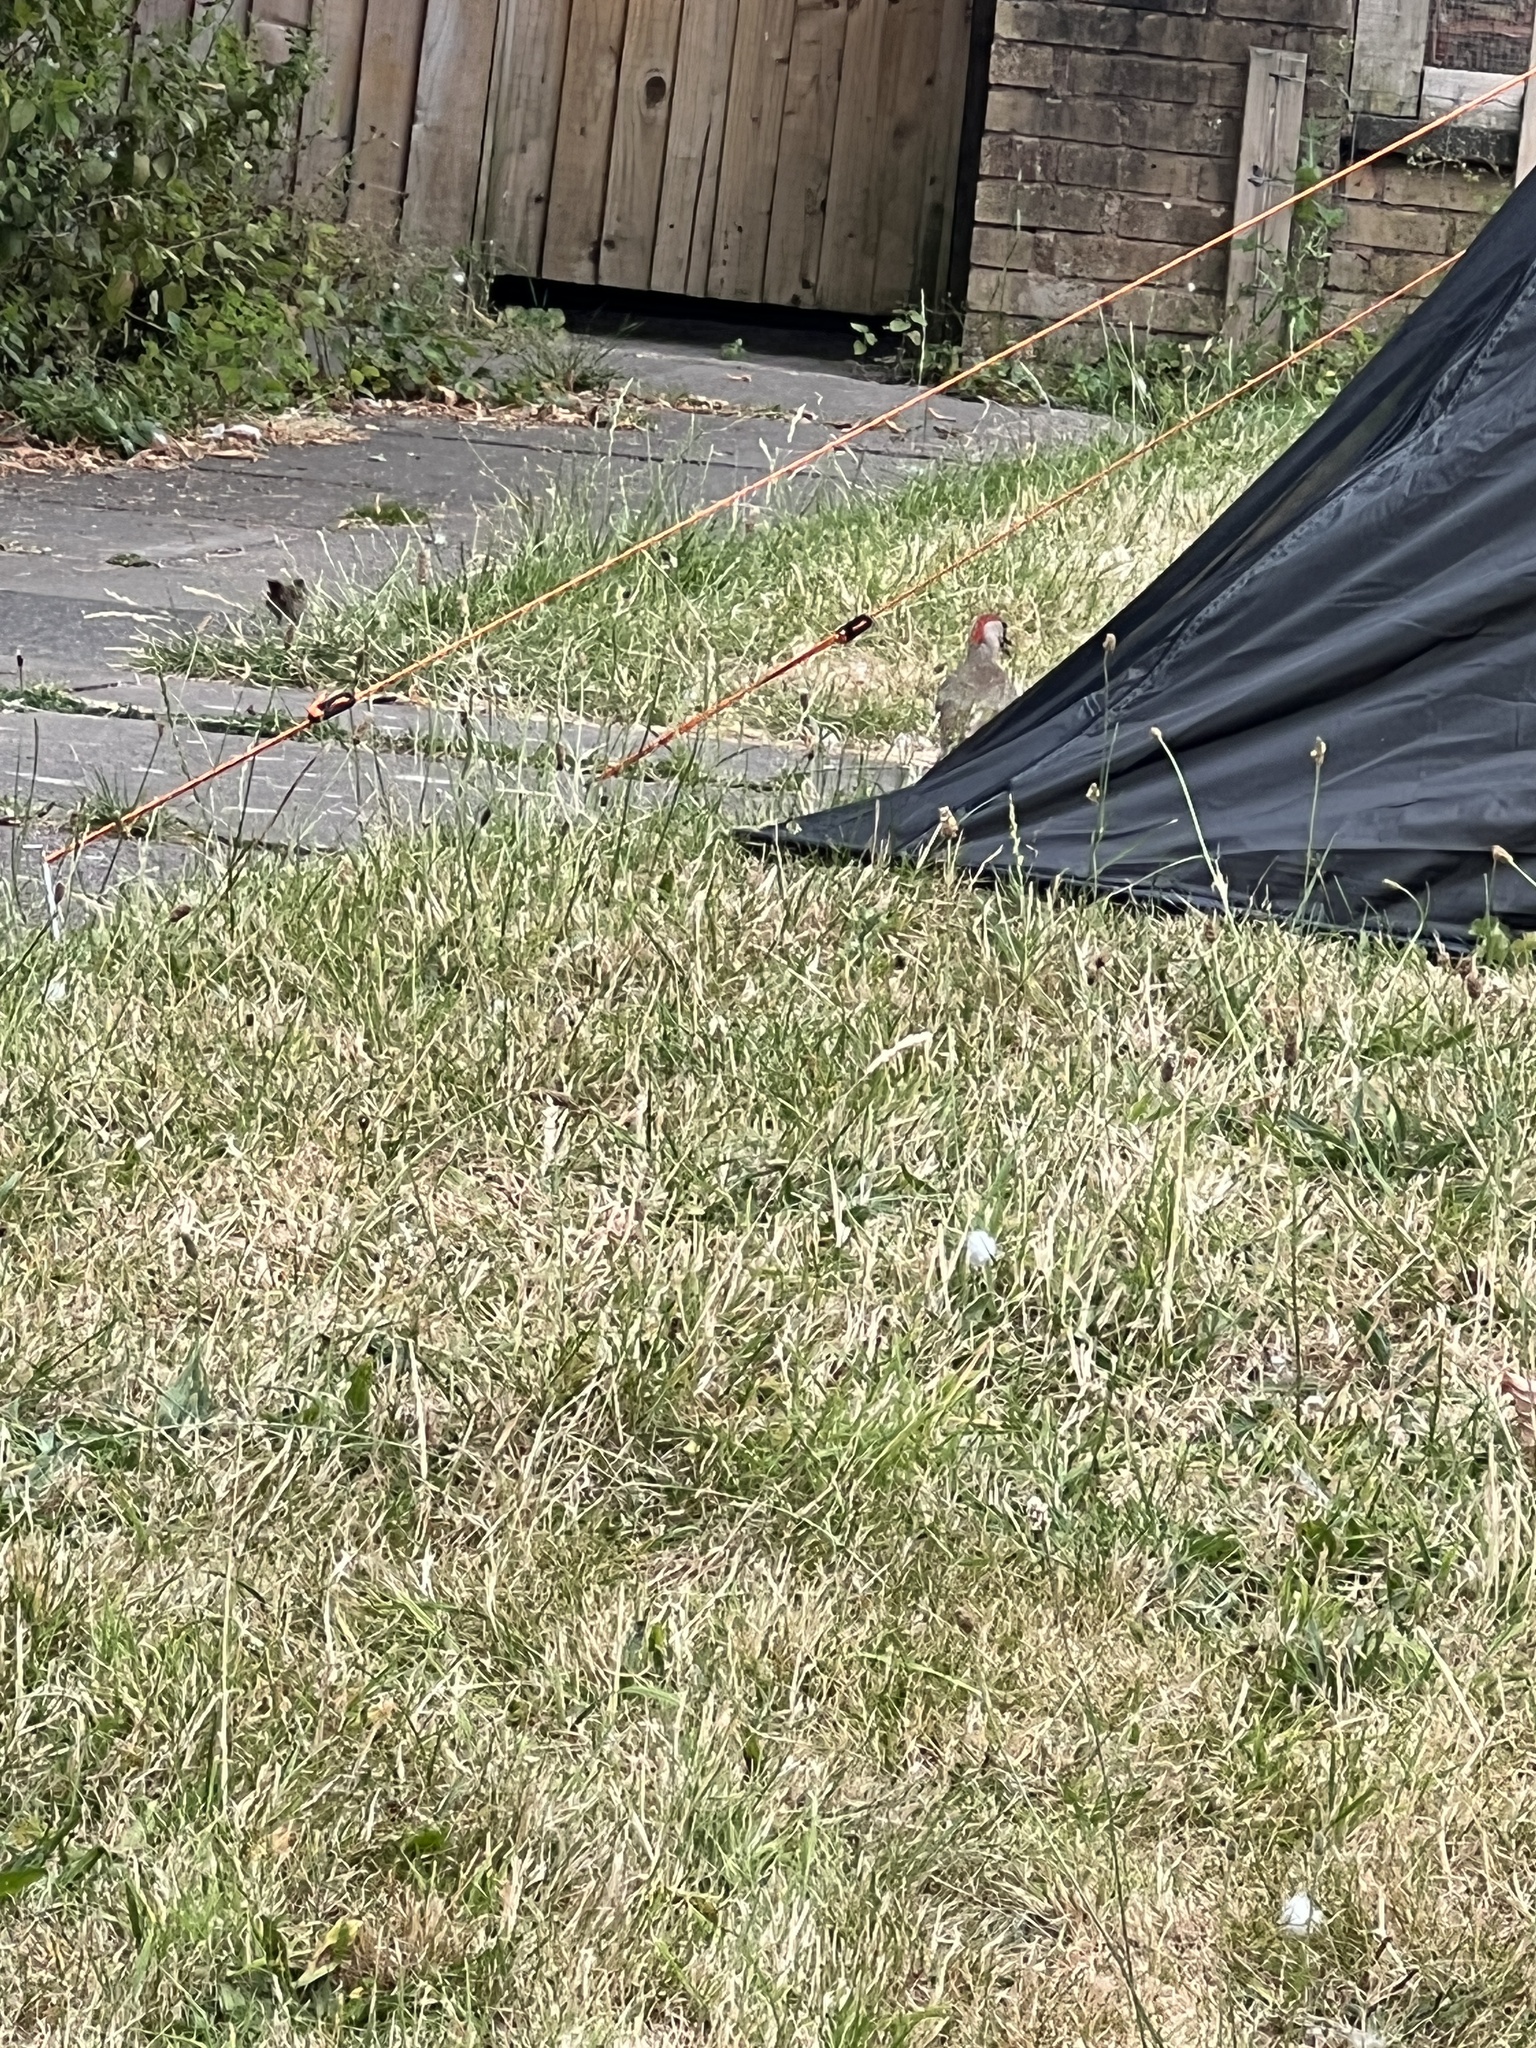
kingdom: Animalia
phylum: Chordata
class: Aves
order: Piciformes
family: Picidae
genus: Picus
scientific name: Picus viridis
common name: European green woodpecker
